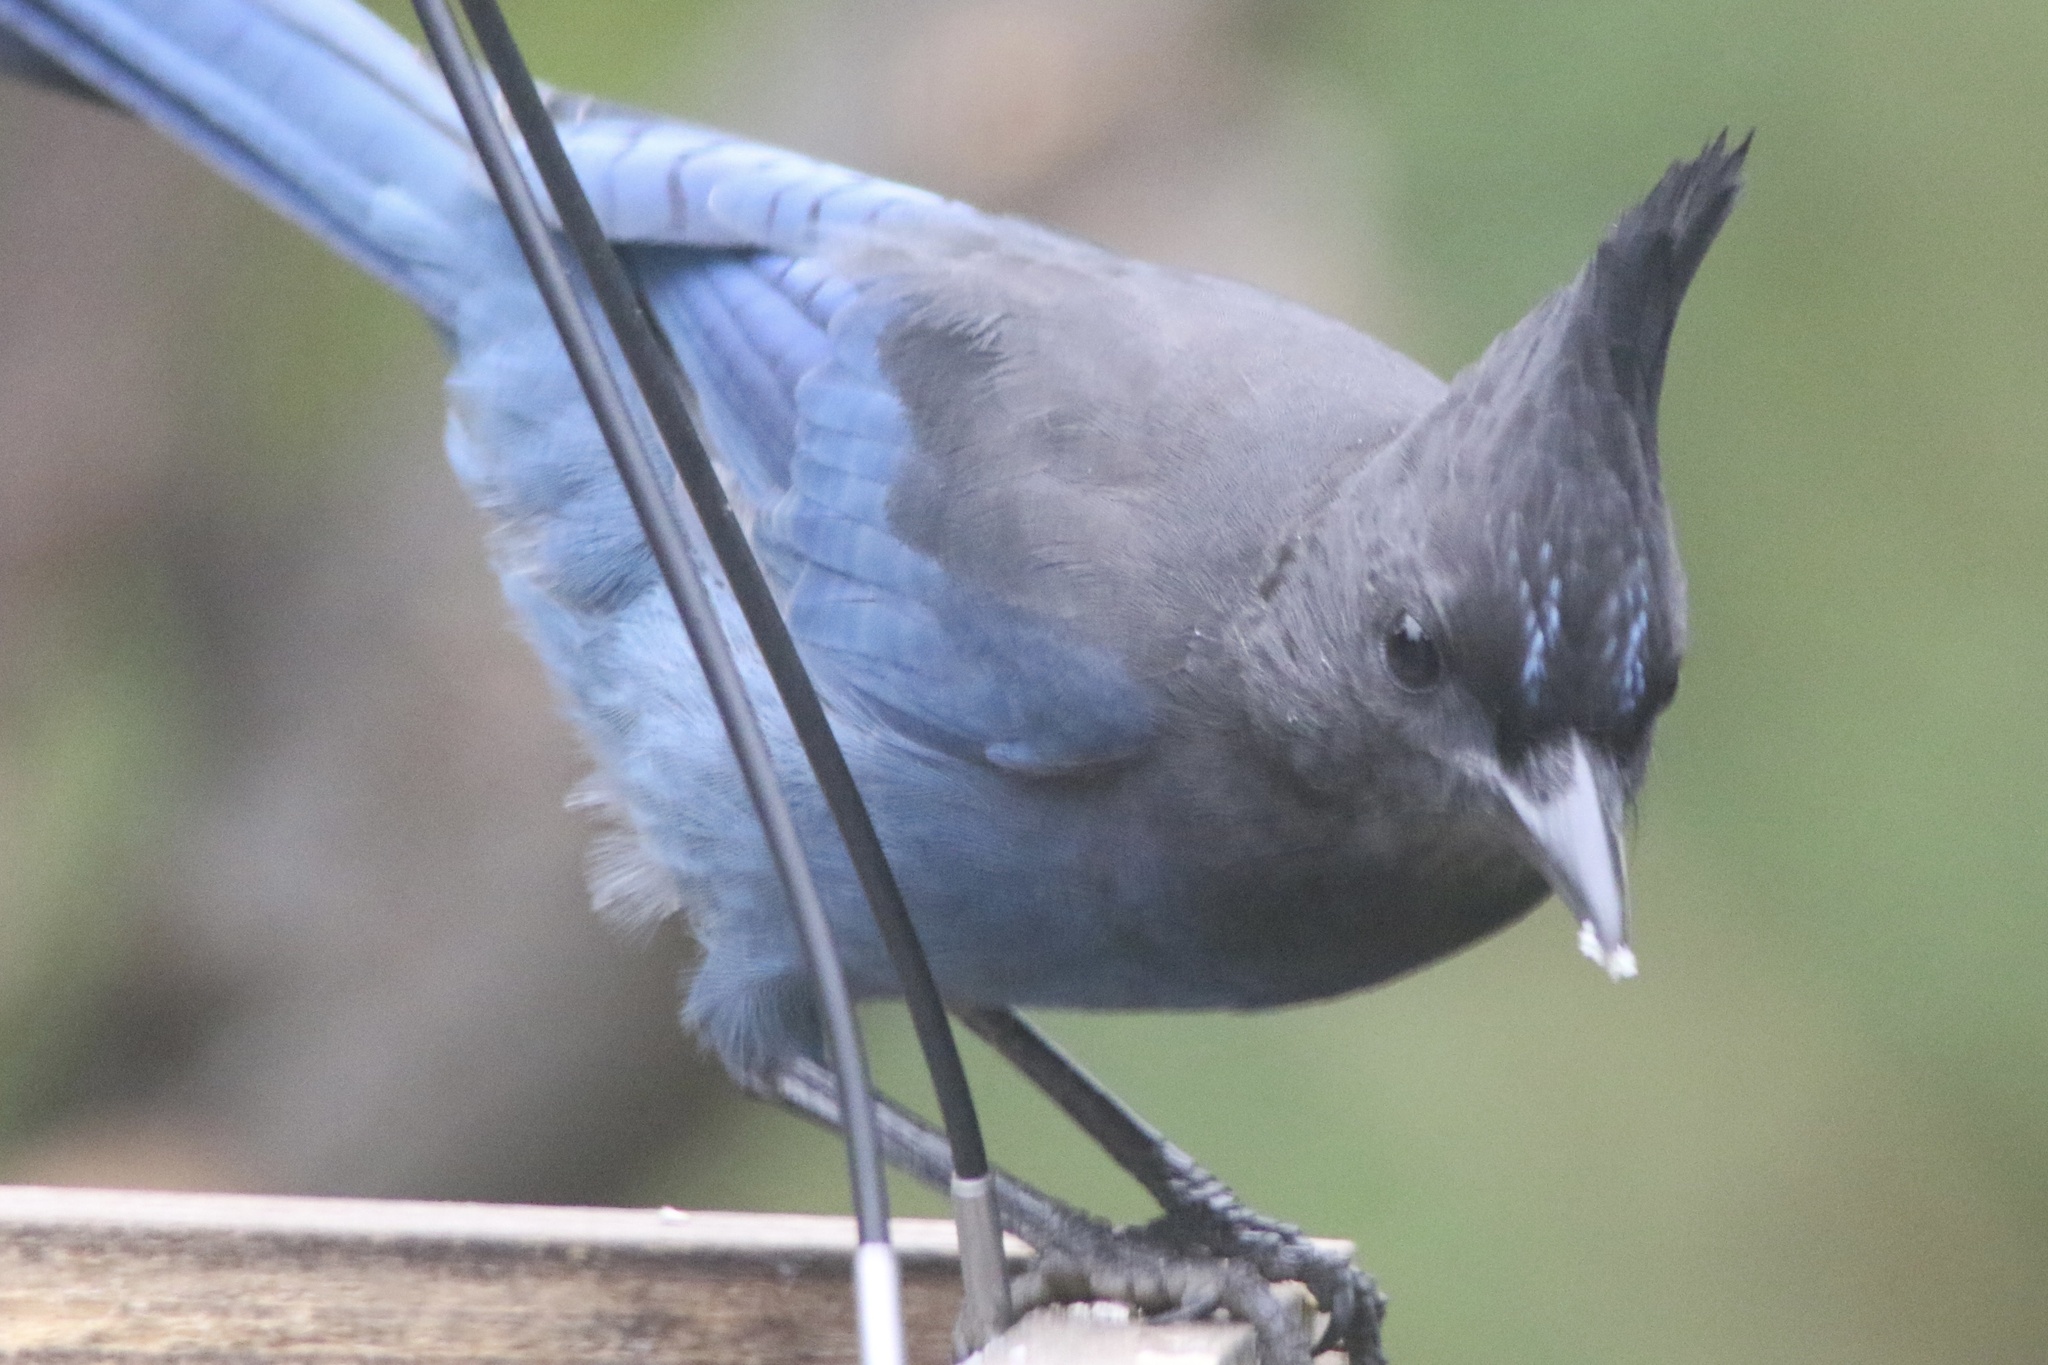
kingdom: Animalia
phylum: Chordata
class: Aves
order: Passeriformes
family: Corvidae
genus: Cyanocitta
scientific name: Cyanocitta stelleri
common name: Steller's jay
